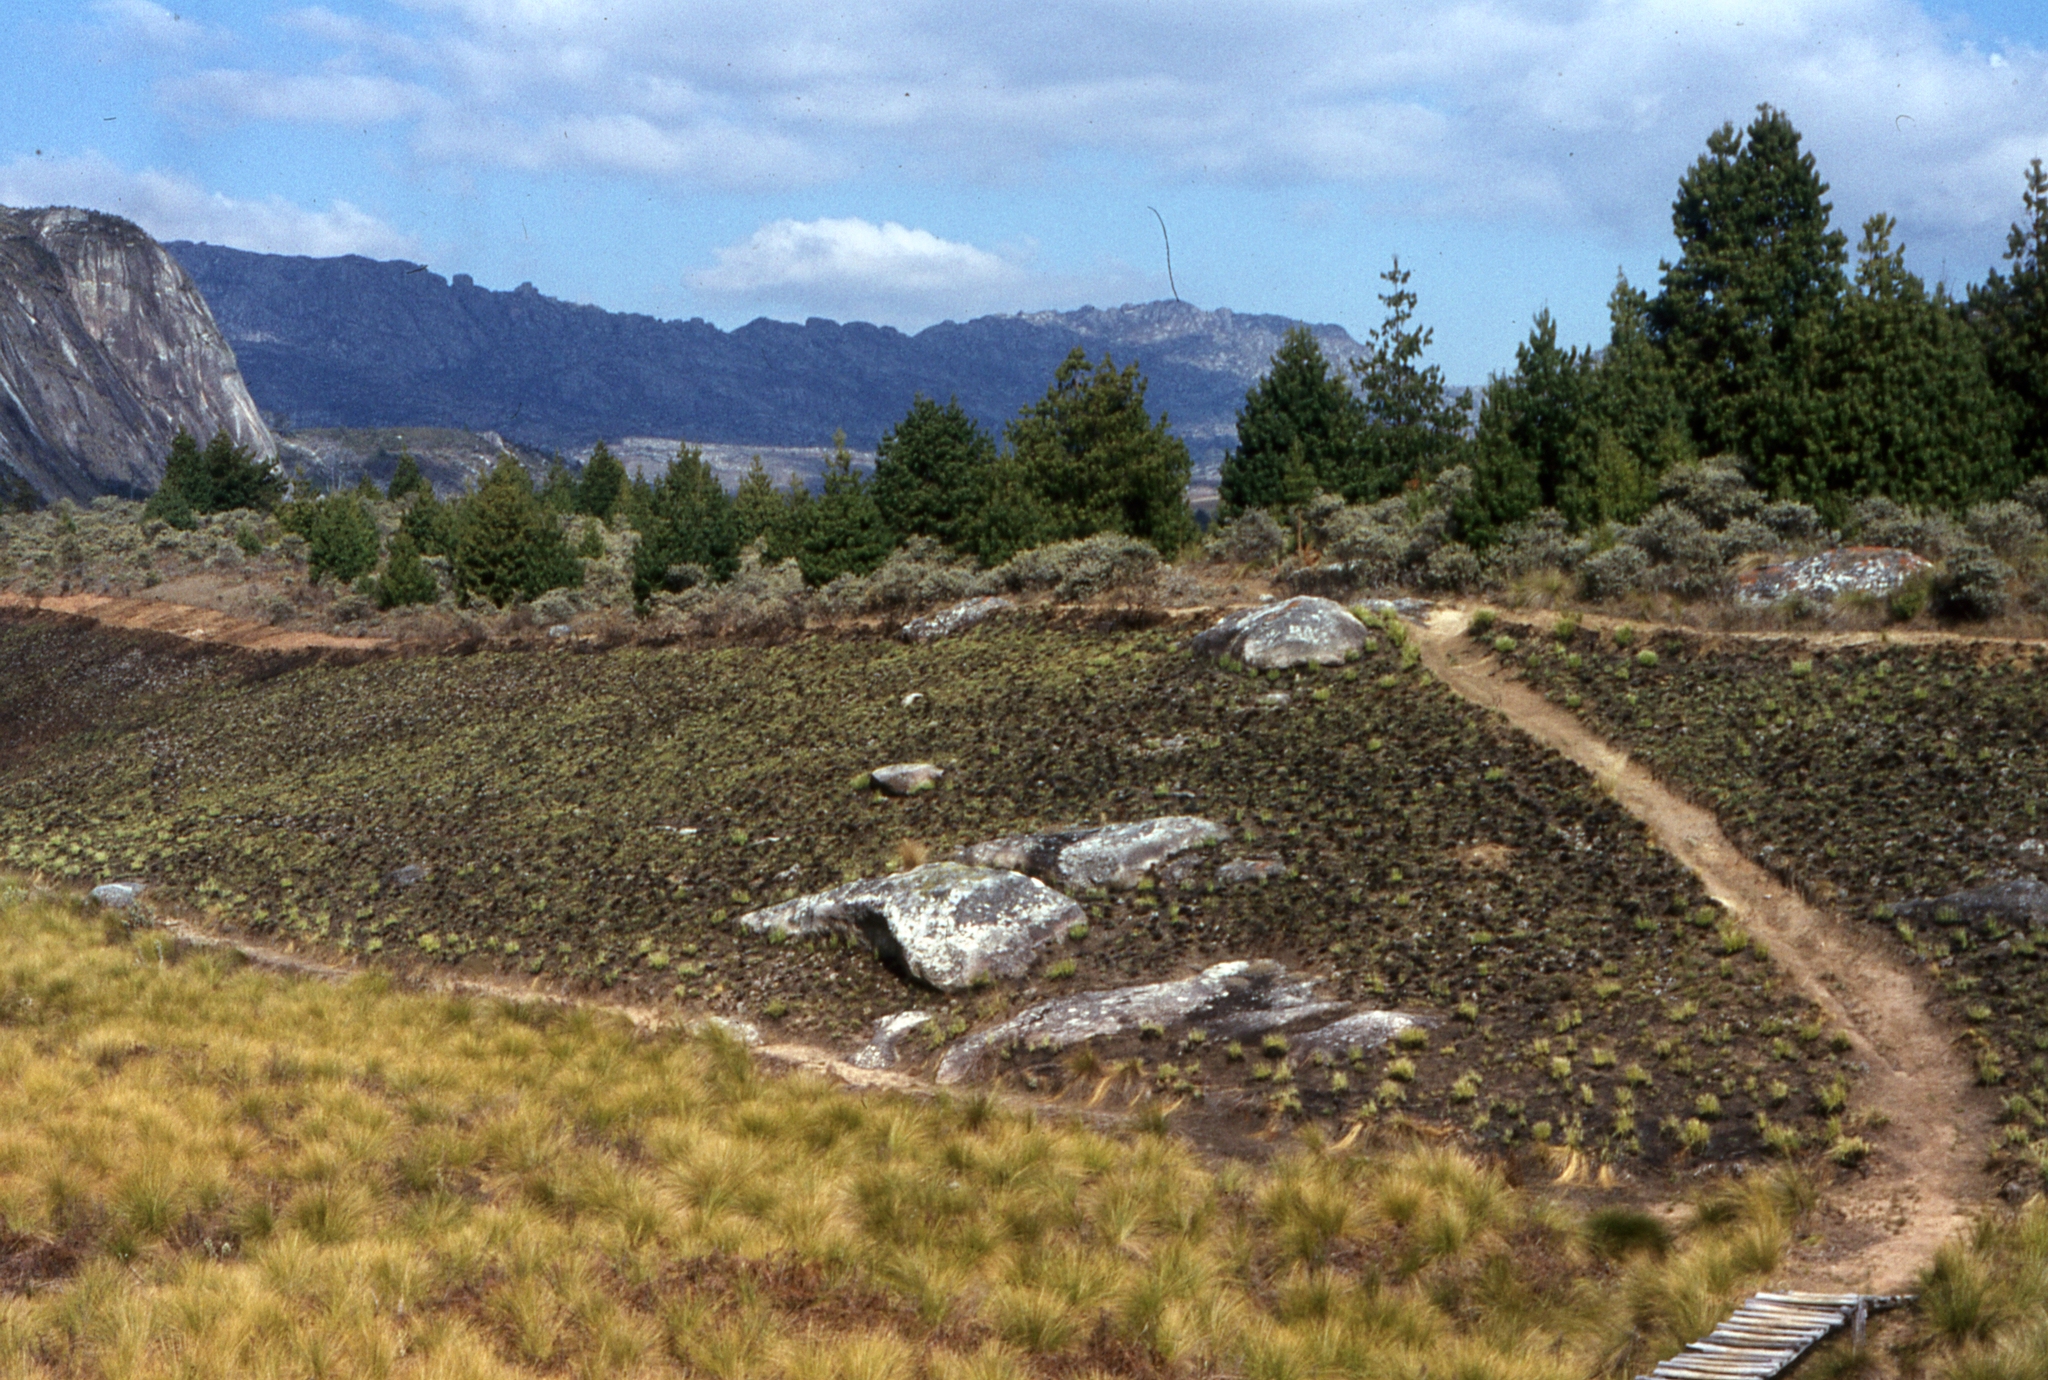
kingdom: Plantae
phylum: Tracheophyta
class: Pinopsida
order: Pinales
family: Pinaceae
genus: Pinus
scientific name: Pinus patula
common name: Mexican weeping pine
